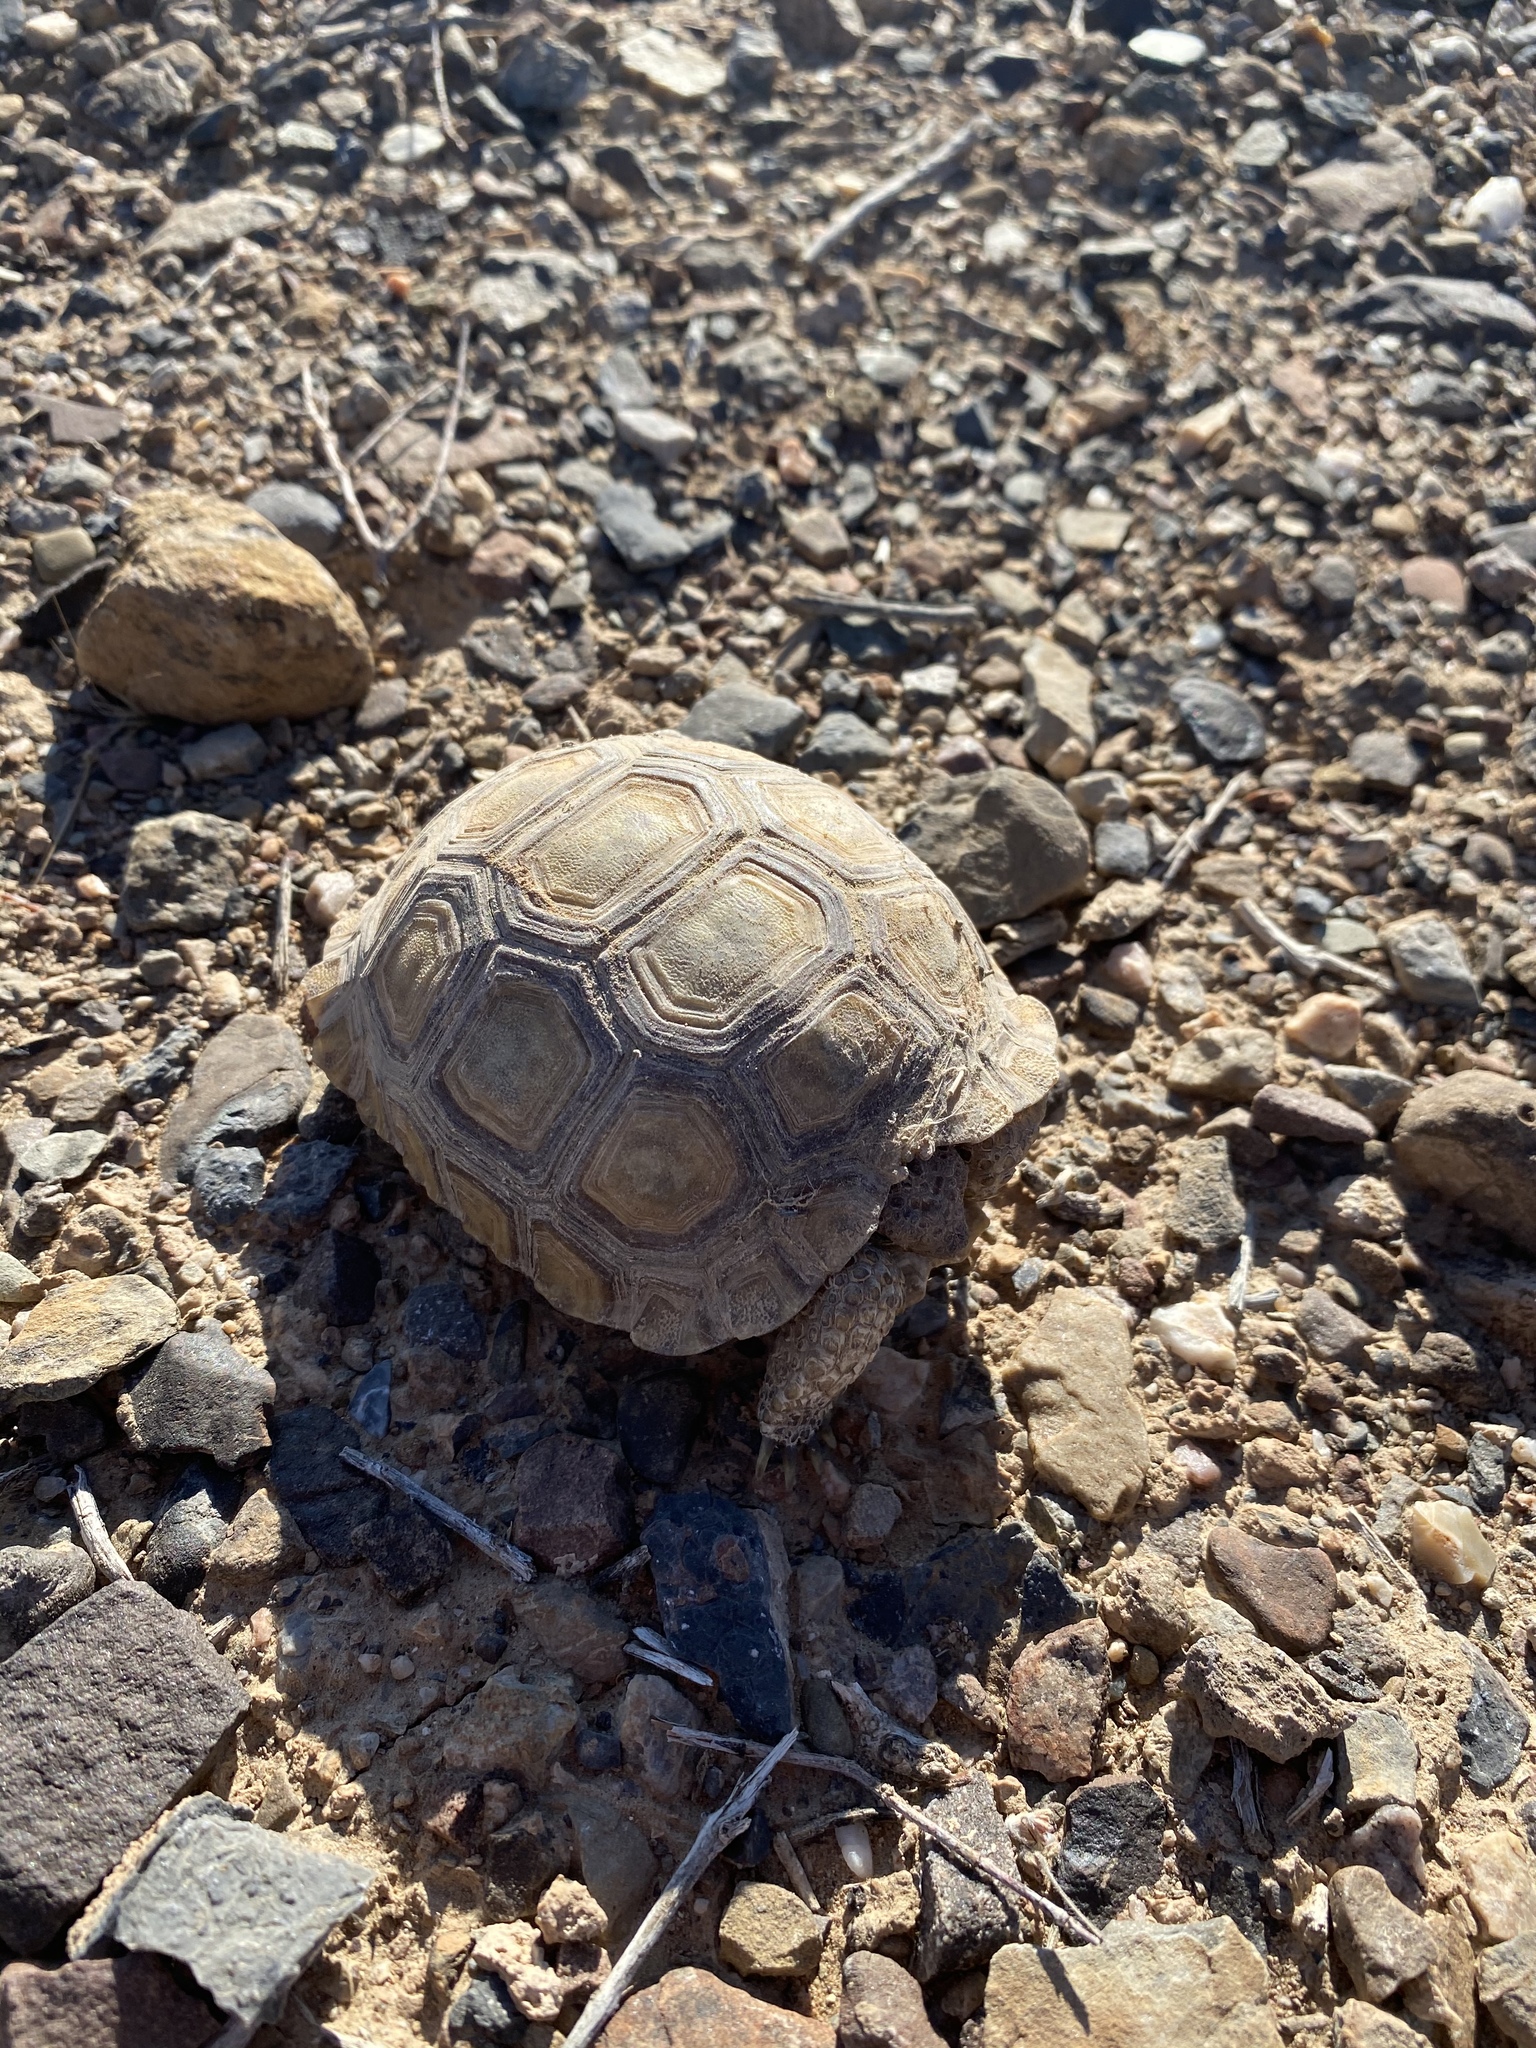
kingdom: Animalia
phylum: Chordata
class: Testudines
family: Testudinidae
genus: Gopherus
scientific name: Gopherus agassizii
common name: Mojave desert tortoise
